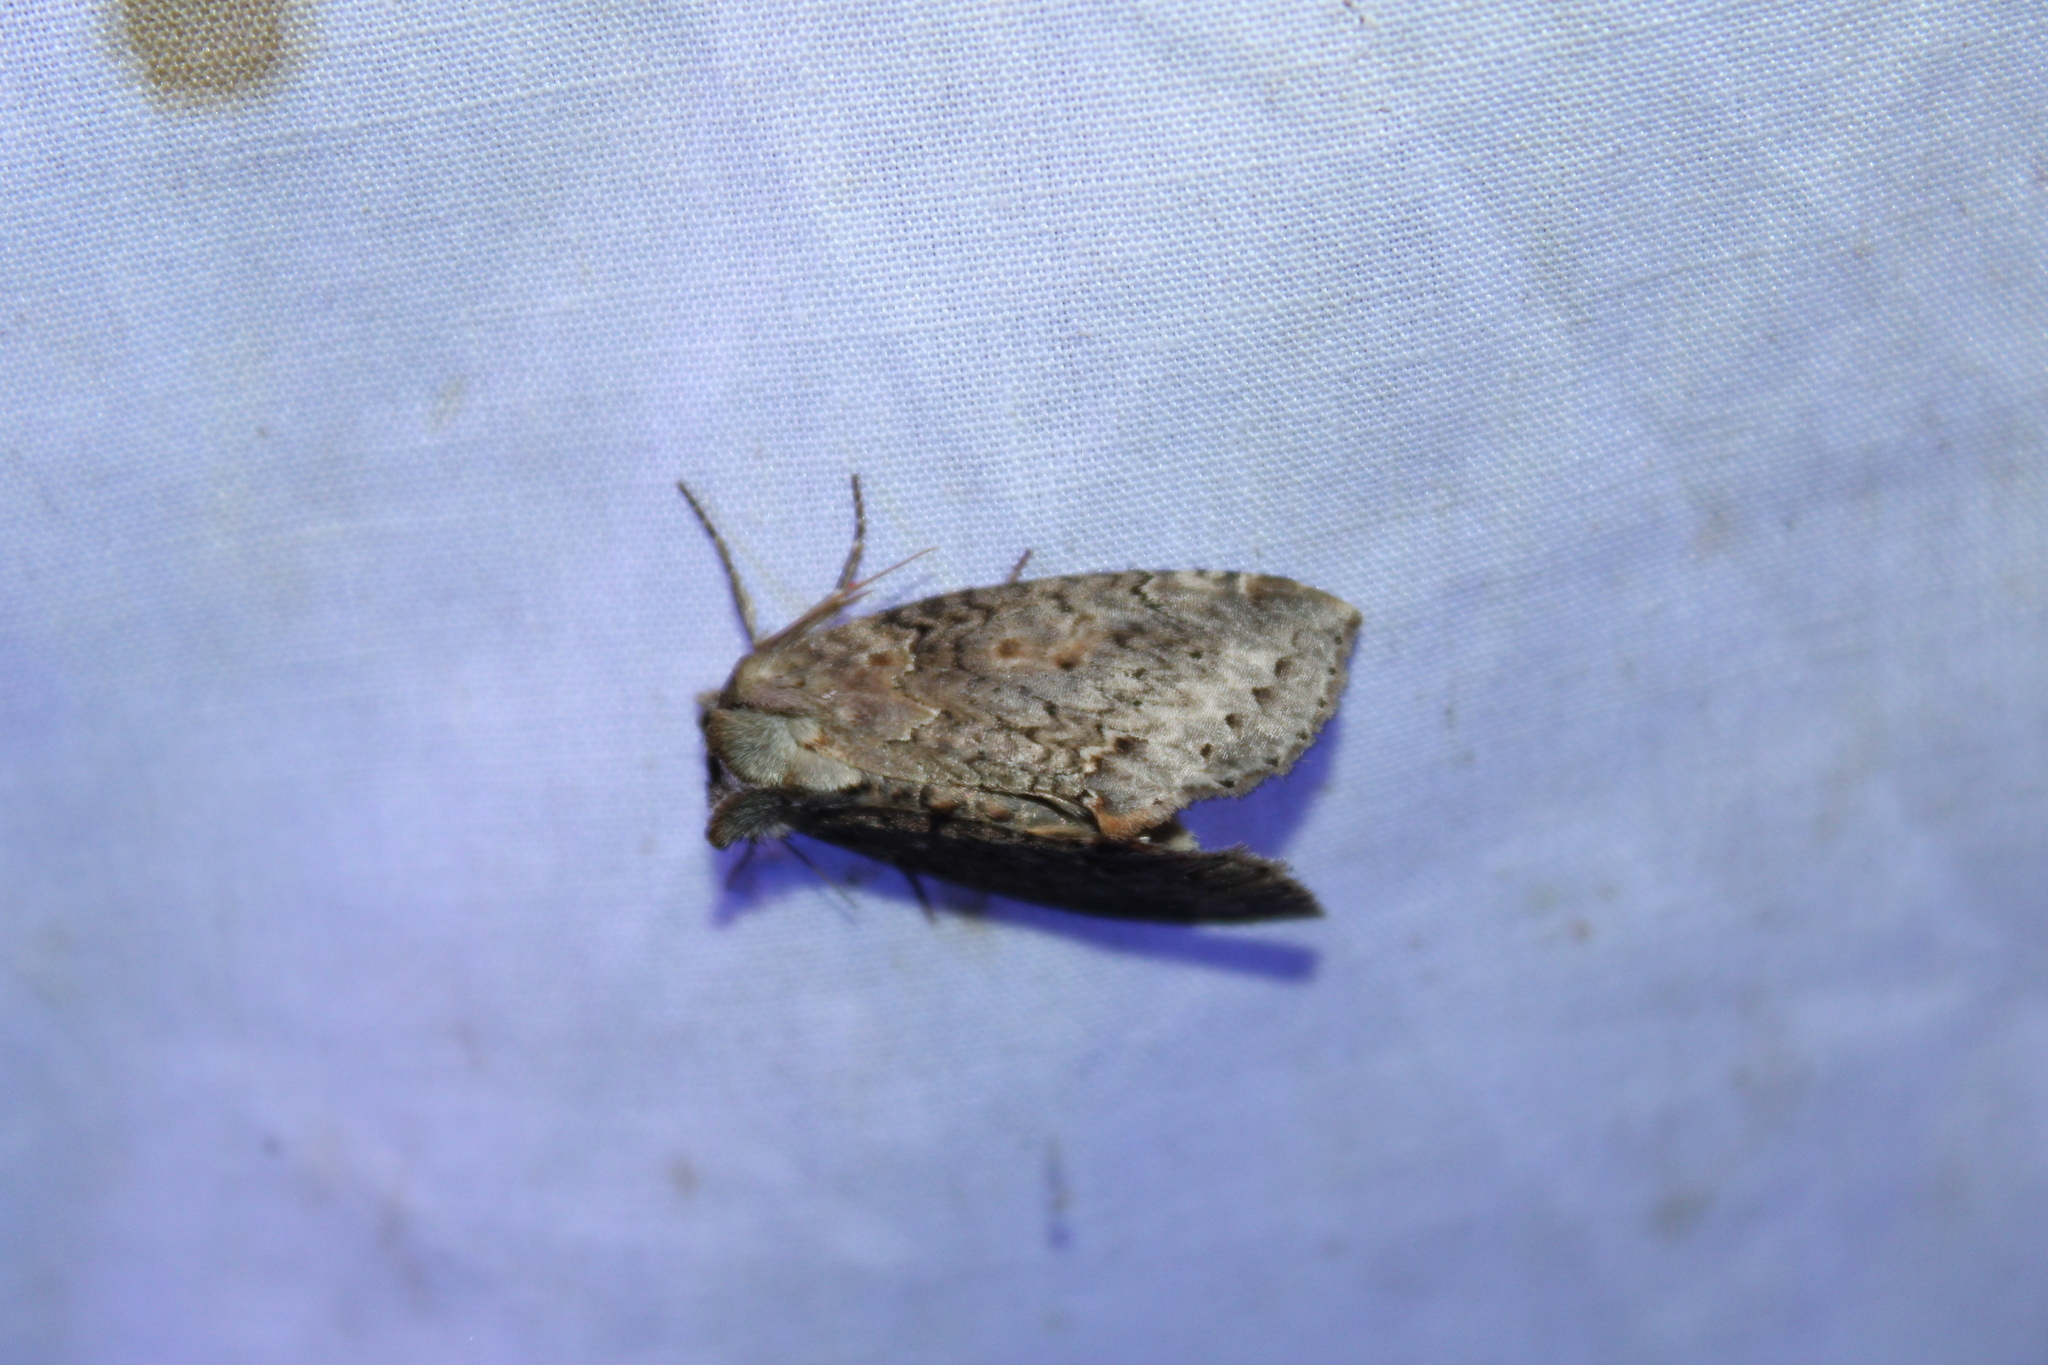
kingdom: Animalia
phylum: Arthropoda
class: Insecta
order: Lepidoptera
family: Drepanidae
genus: Pseudothyatira
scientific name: Pseudothyatira cymatophoroides
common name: Tufted thyatirid moth
